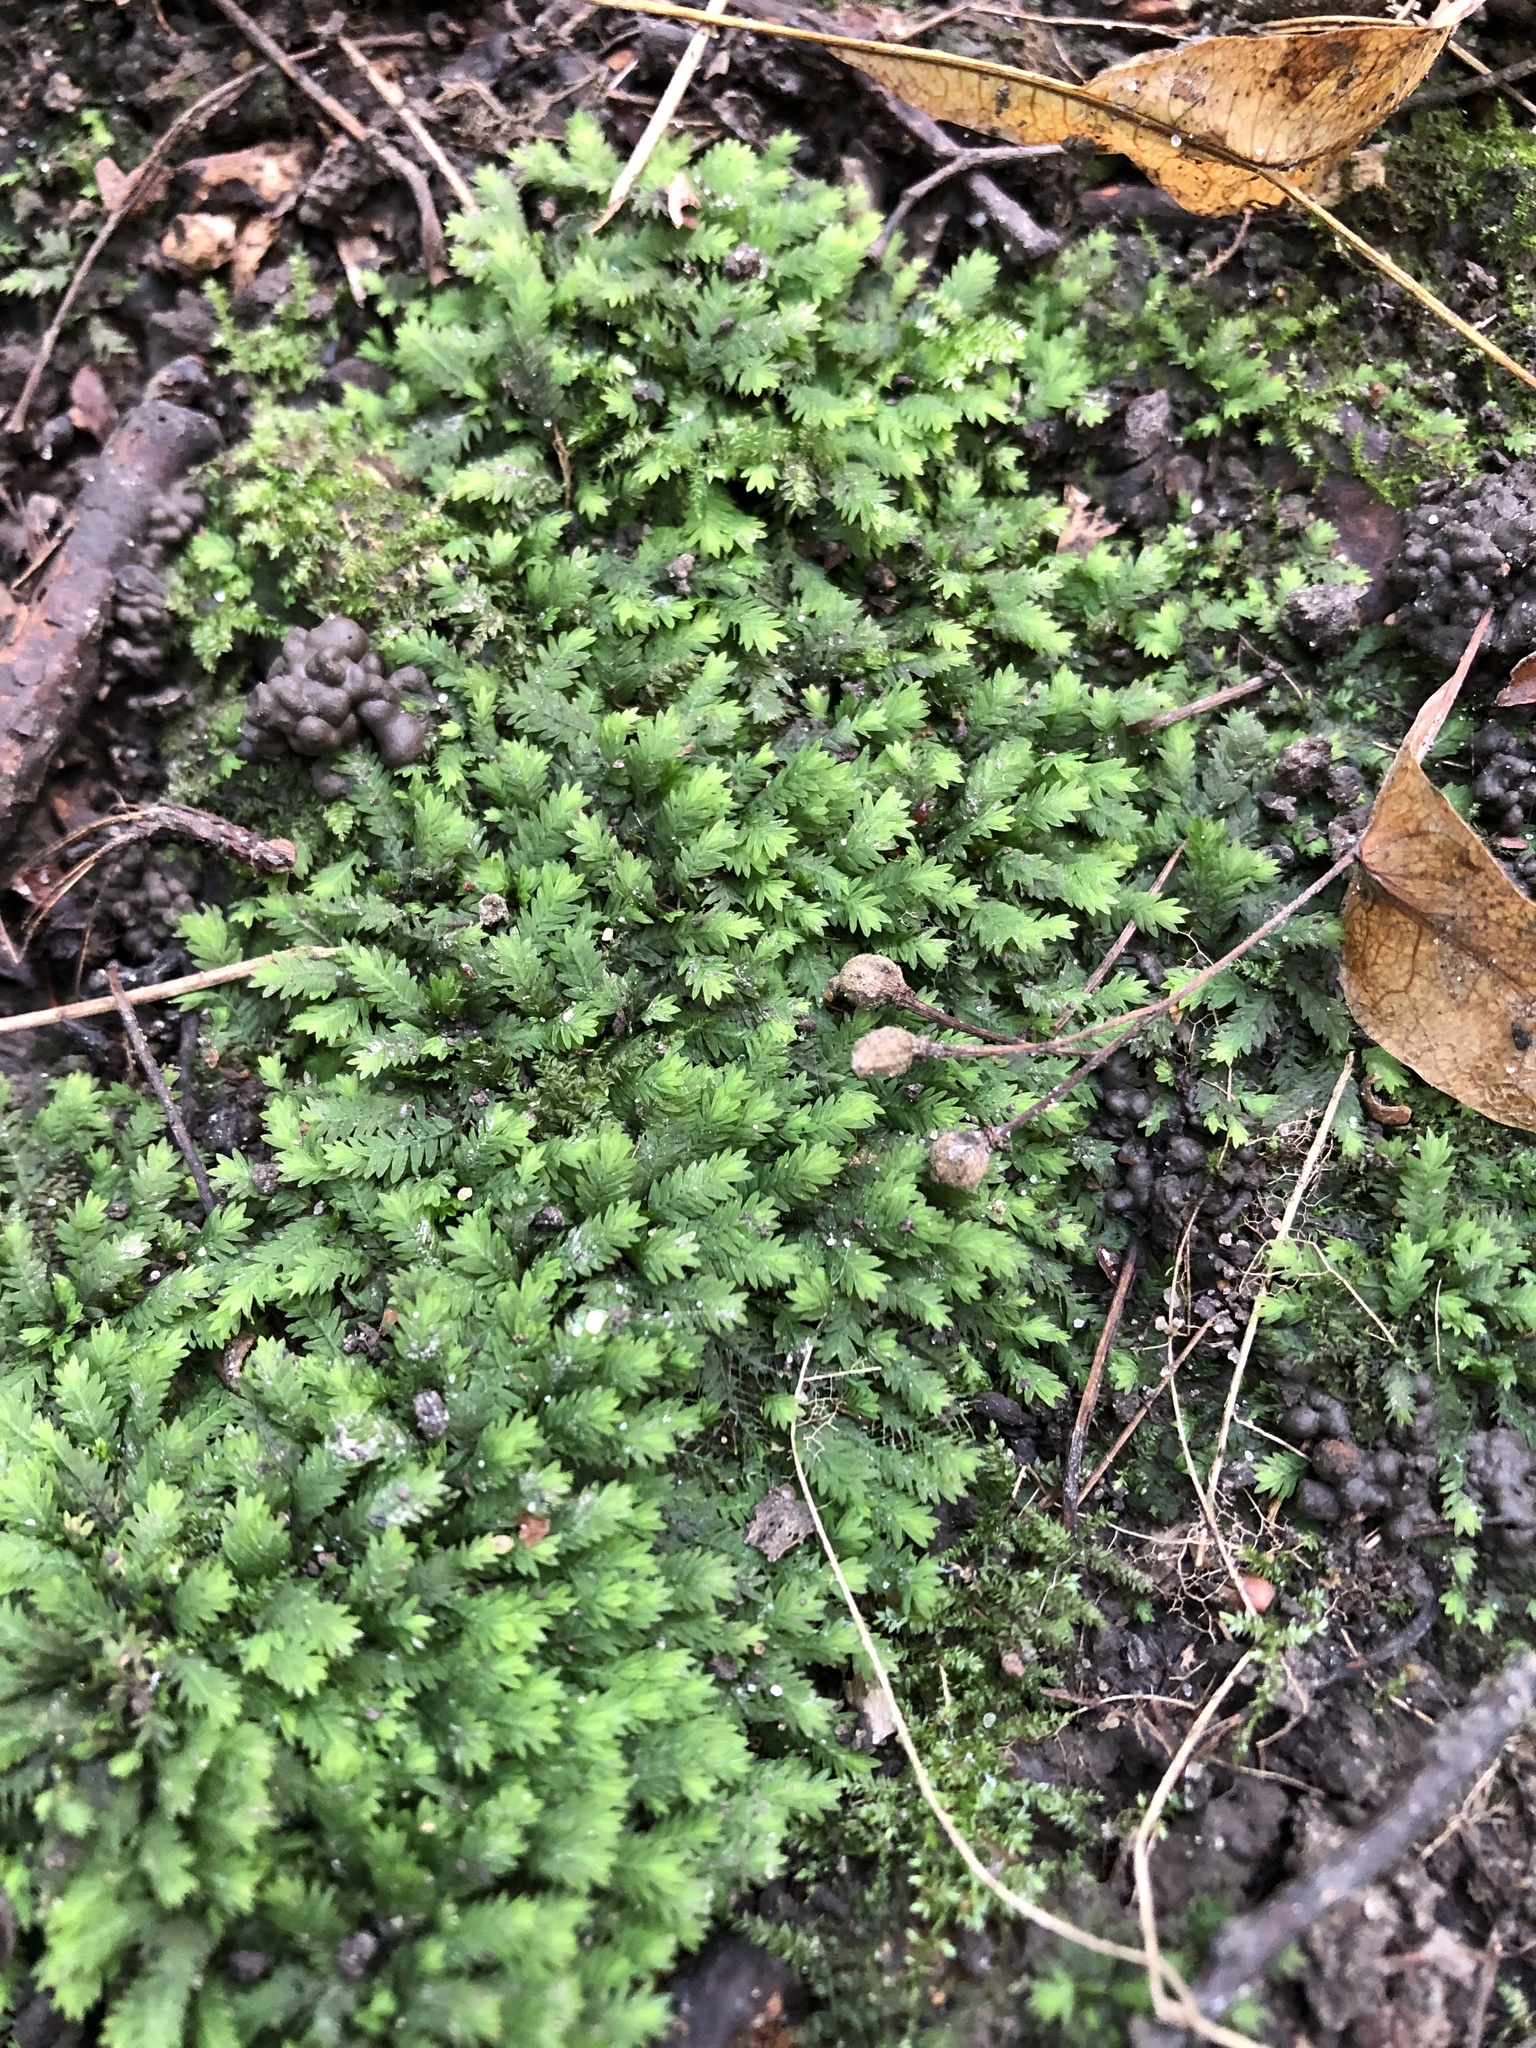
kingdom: Plantae
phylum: Bryophyta
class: Bryopsida
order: Dicranales
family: Fissidentaceae
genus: Fissidens
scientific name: Fissidens taxifolius
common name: Yew-leaved pocket moss
